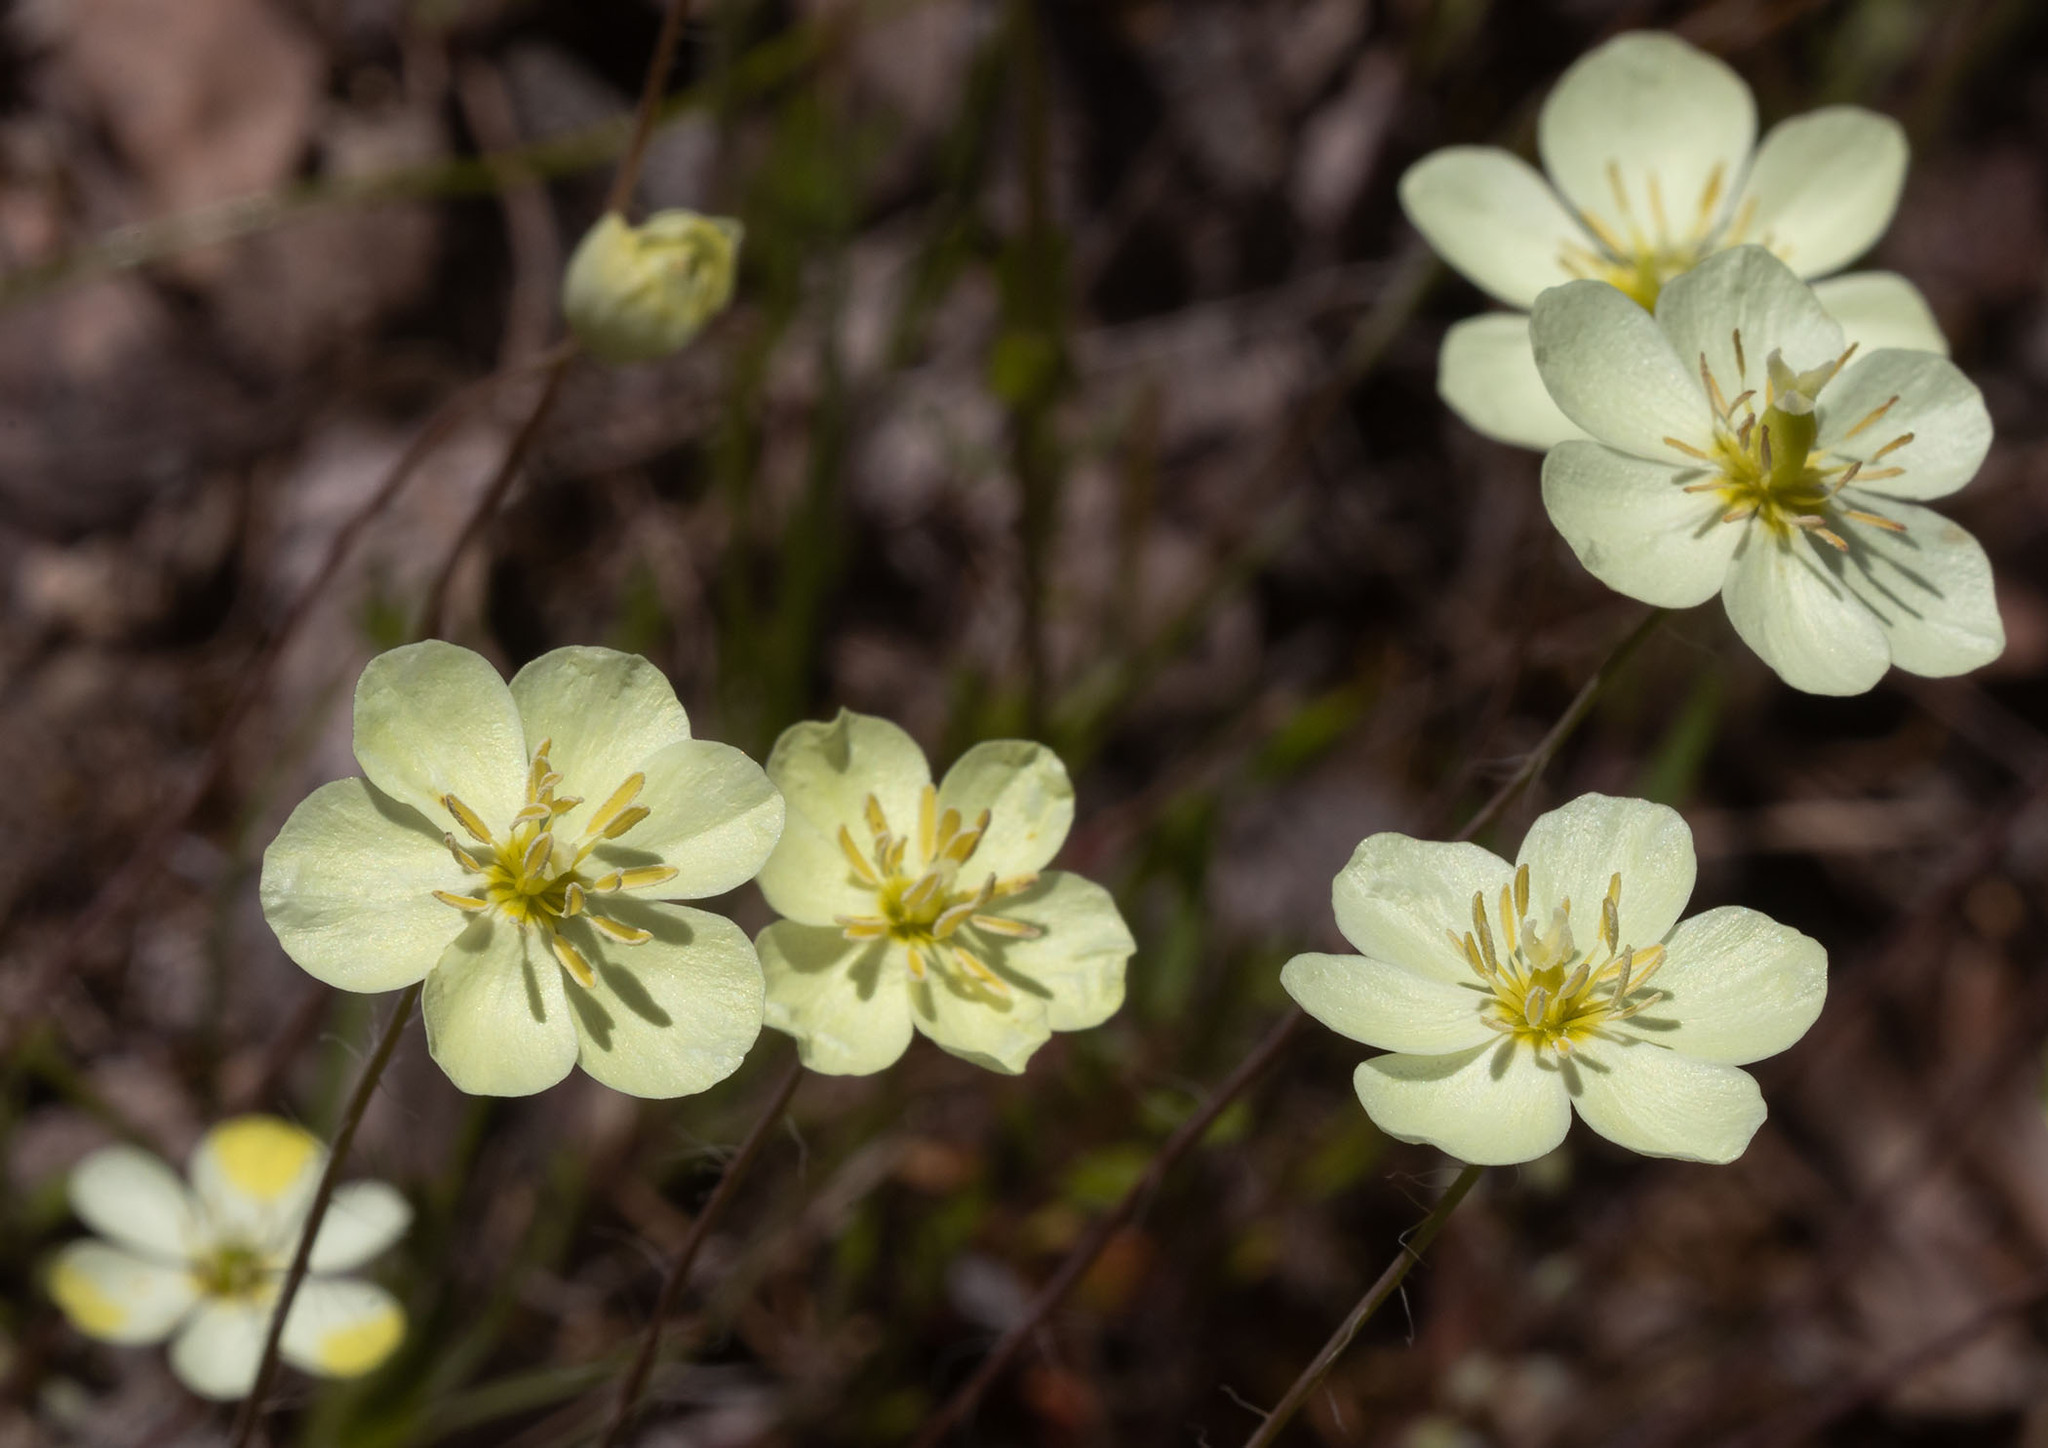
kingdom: Plantae
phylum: Tracheophyta
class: Magnoliopsida
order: Ranunculales
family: Papaveraceae
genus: Platystigma
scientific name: Platystigma lineare
